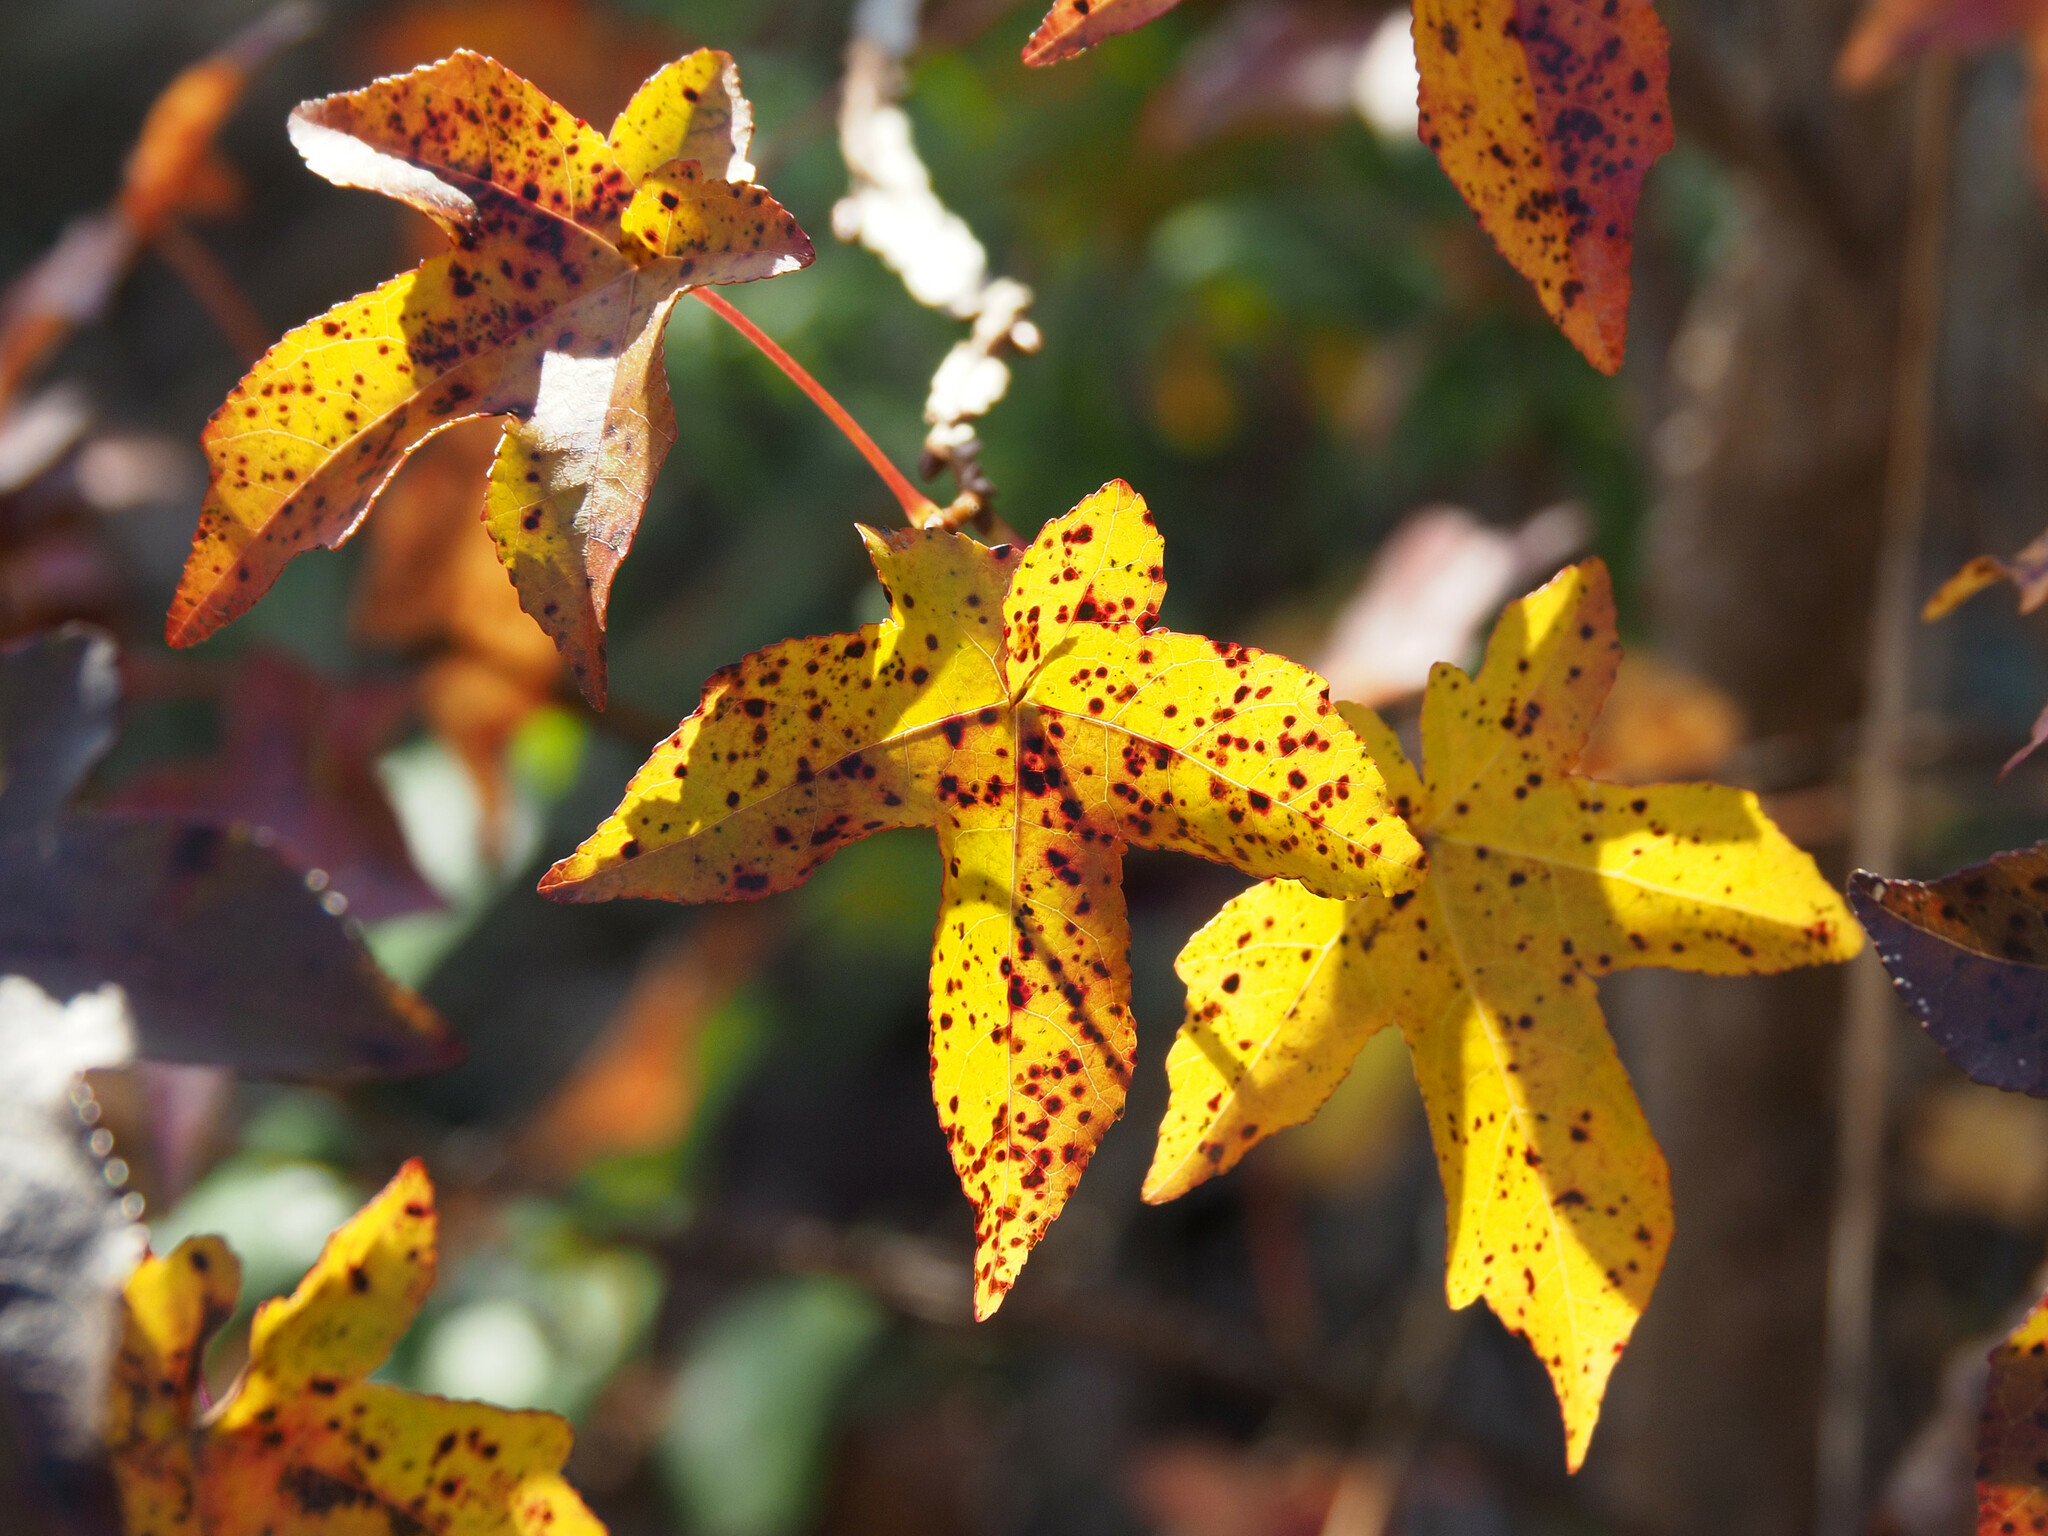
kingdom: Plantae
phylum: Tracheophyta
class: Magnoliopsida
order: Saxifragales
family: Altingiaceae
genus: Liquidambar
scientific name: Liquidambar styraciflua
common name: Sweet gum
